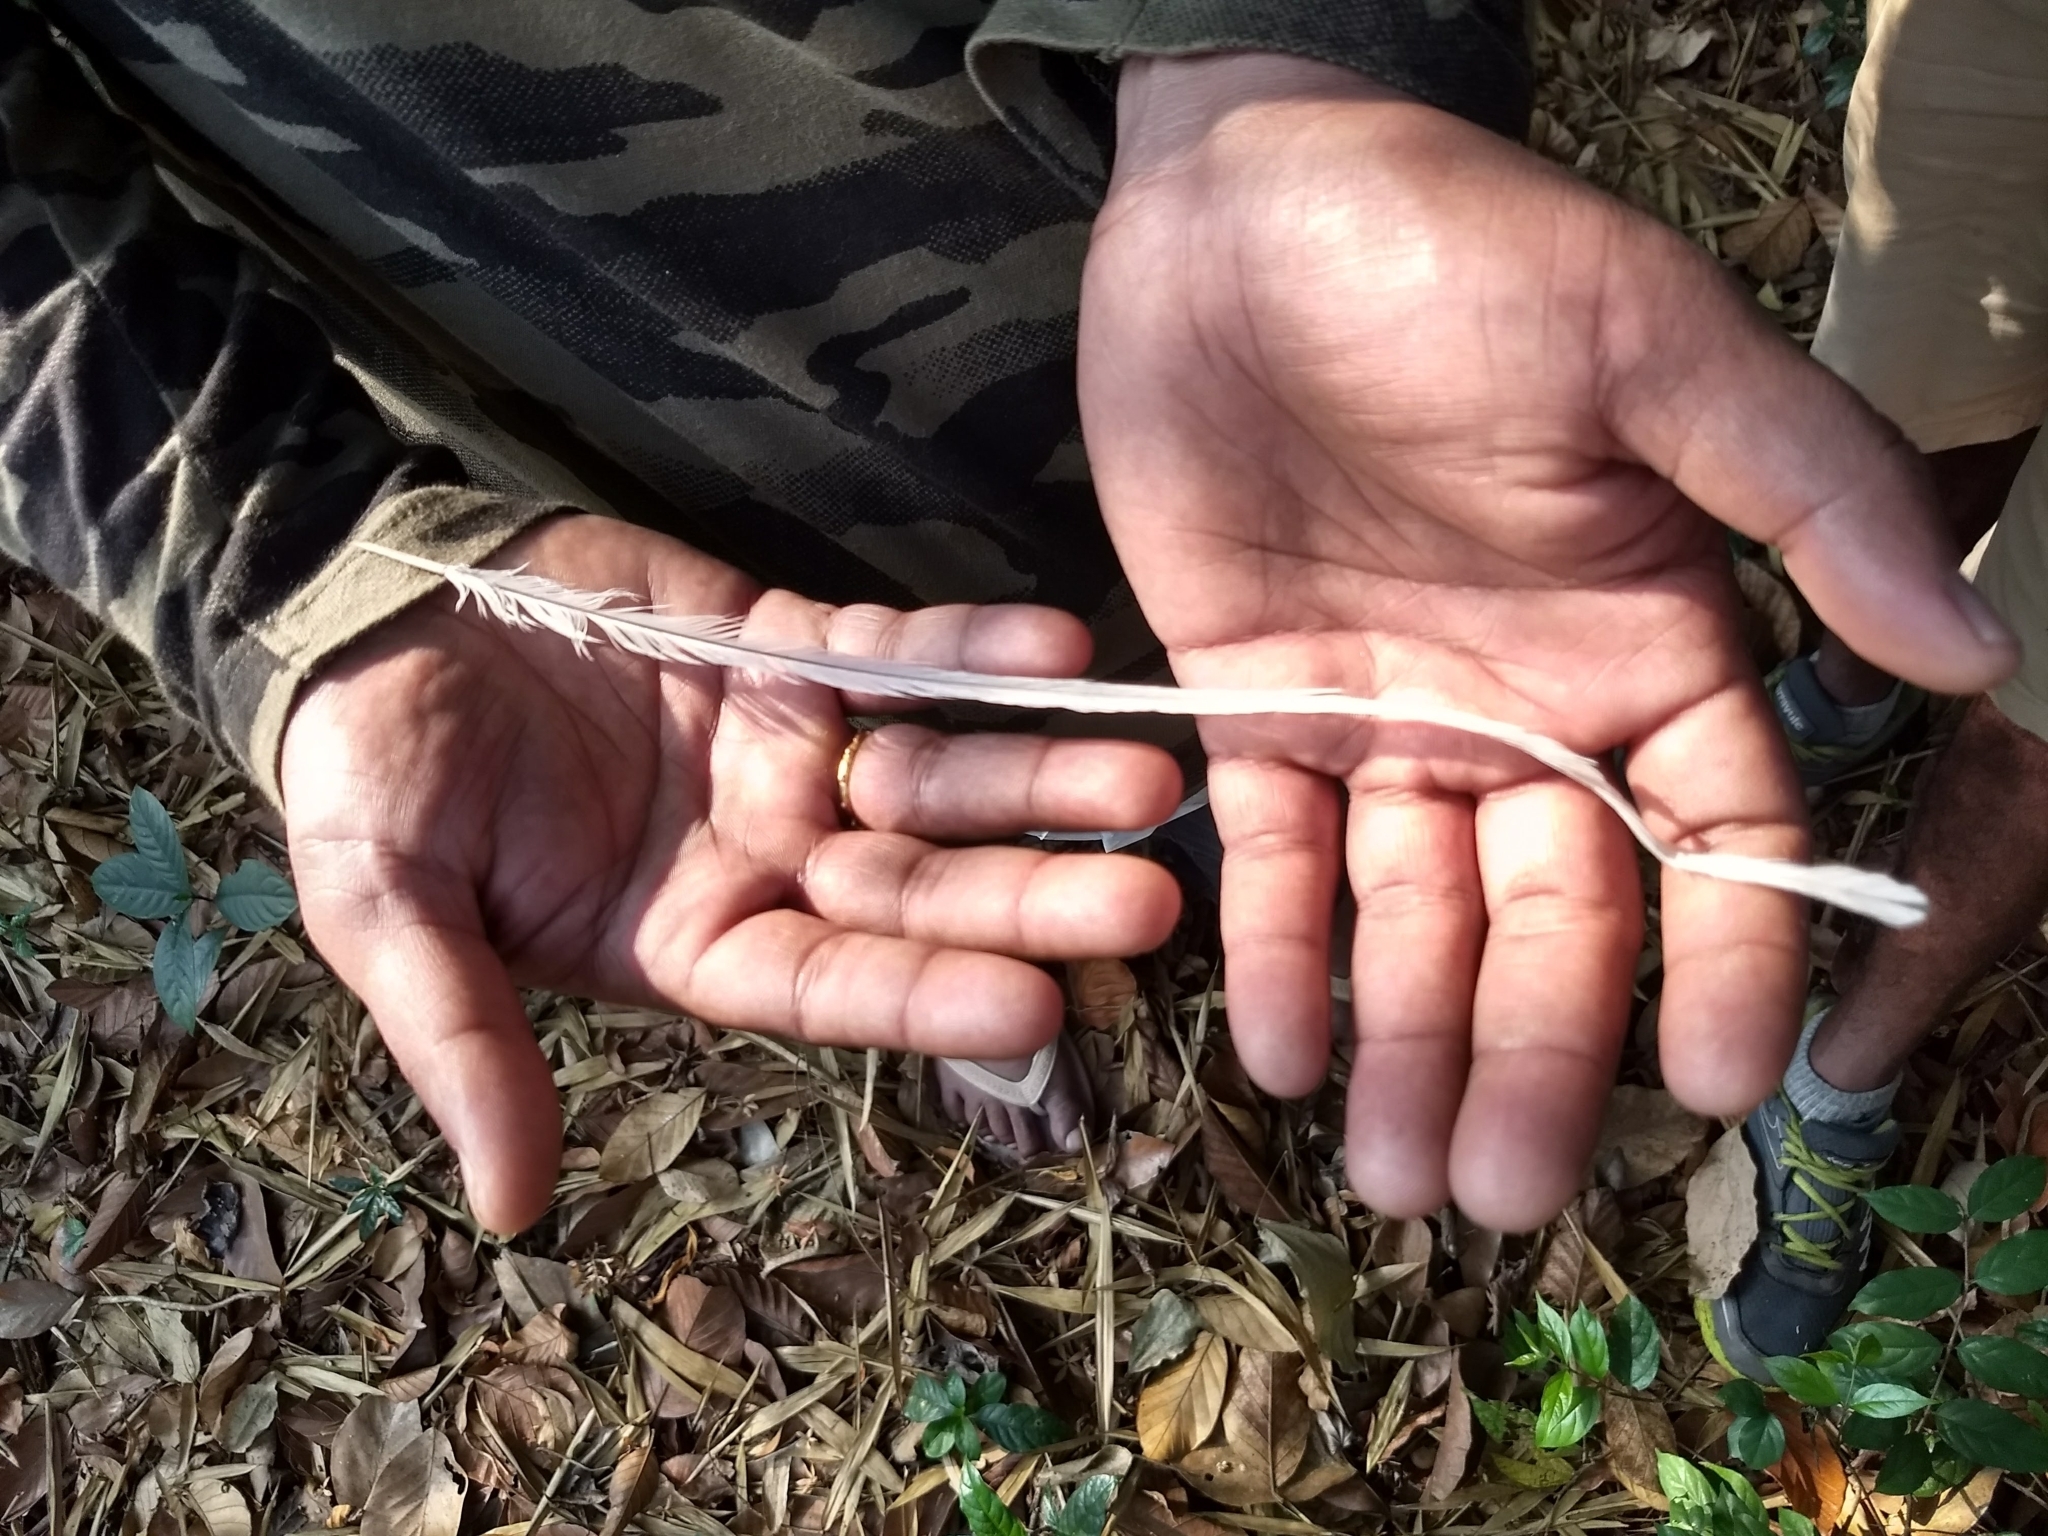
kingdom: Animalia
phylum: Chordata
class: Aves
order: Passeriformes
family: Monarchidae
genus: Terpsiphone
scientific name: Terpsiphone paradisi
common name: Indian paradise flycatcher
